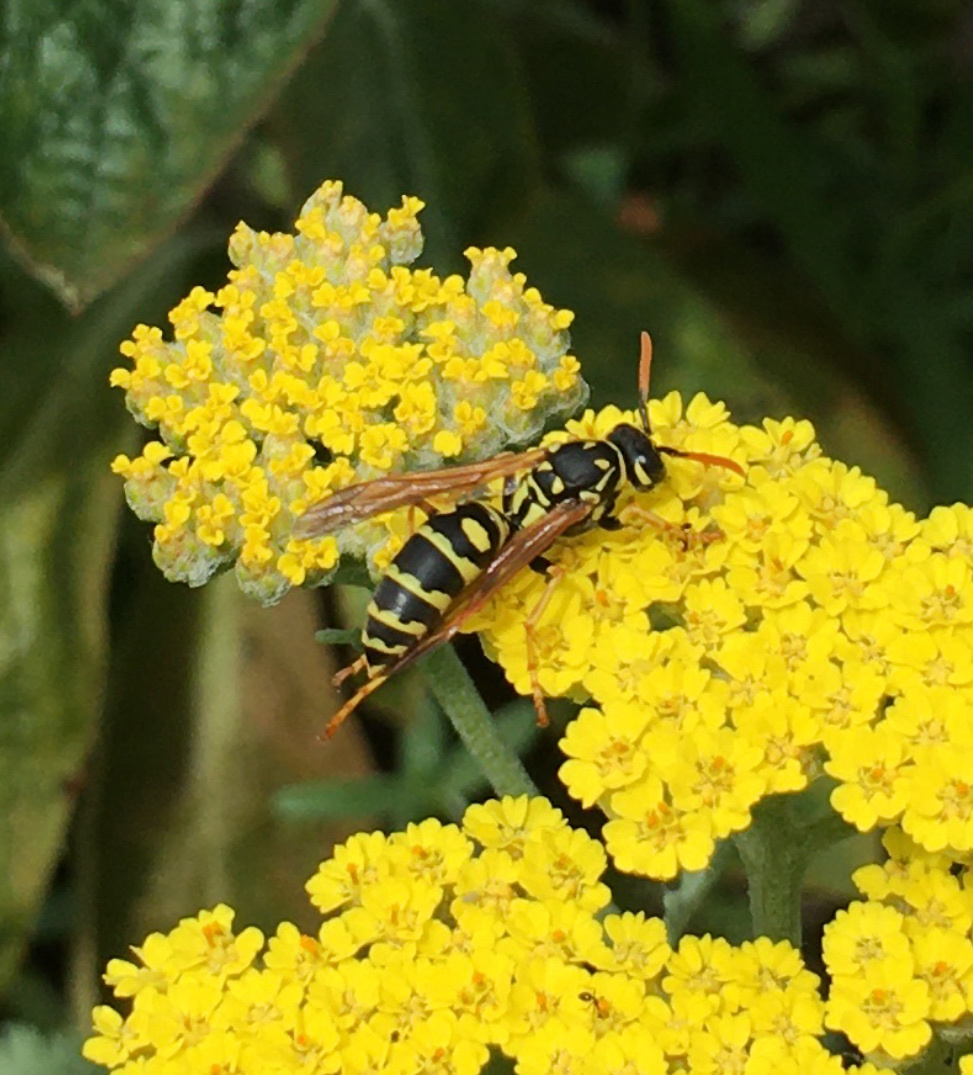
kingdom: Animalia
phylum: Arthropoda
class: Insecta
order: Hymenoptera
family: Eumenidae
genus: Polistes
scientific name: Polistes dominula
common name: Paper wasp
